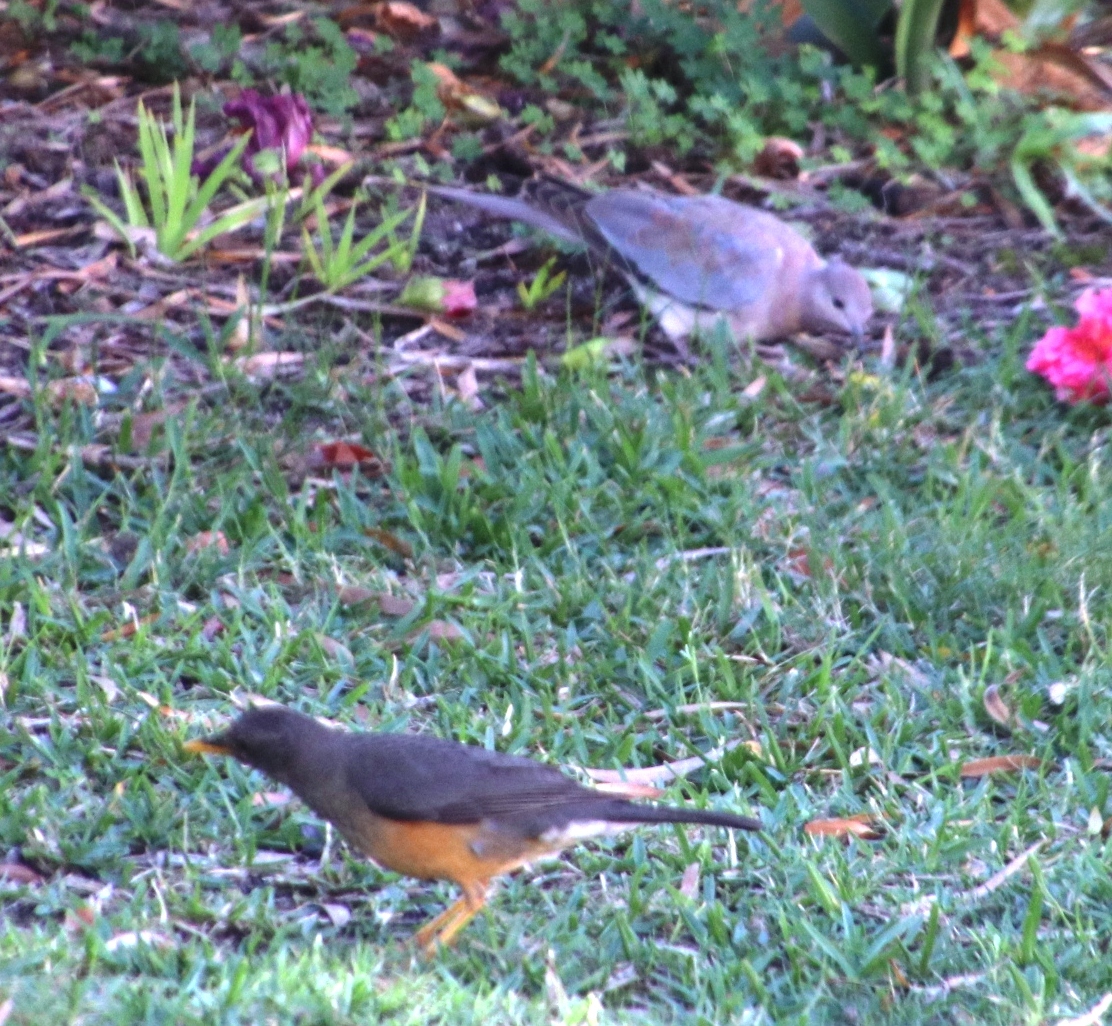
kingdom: Animalia
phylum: Chordata
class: Aves
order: Passeriformes
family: Turdidae
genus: Turdus
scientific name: Turdus olivaceus
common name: Olive thrush
